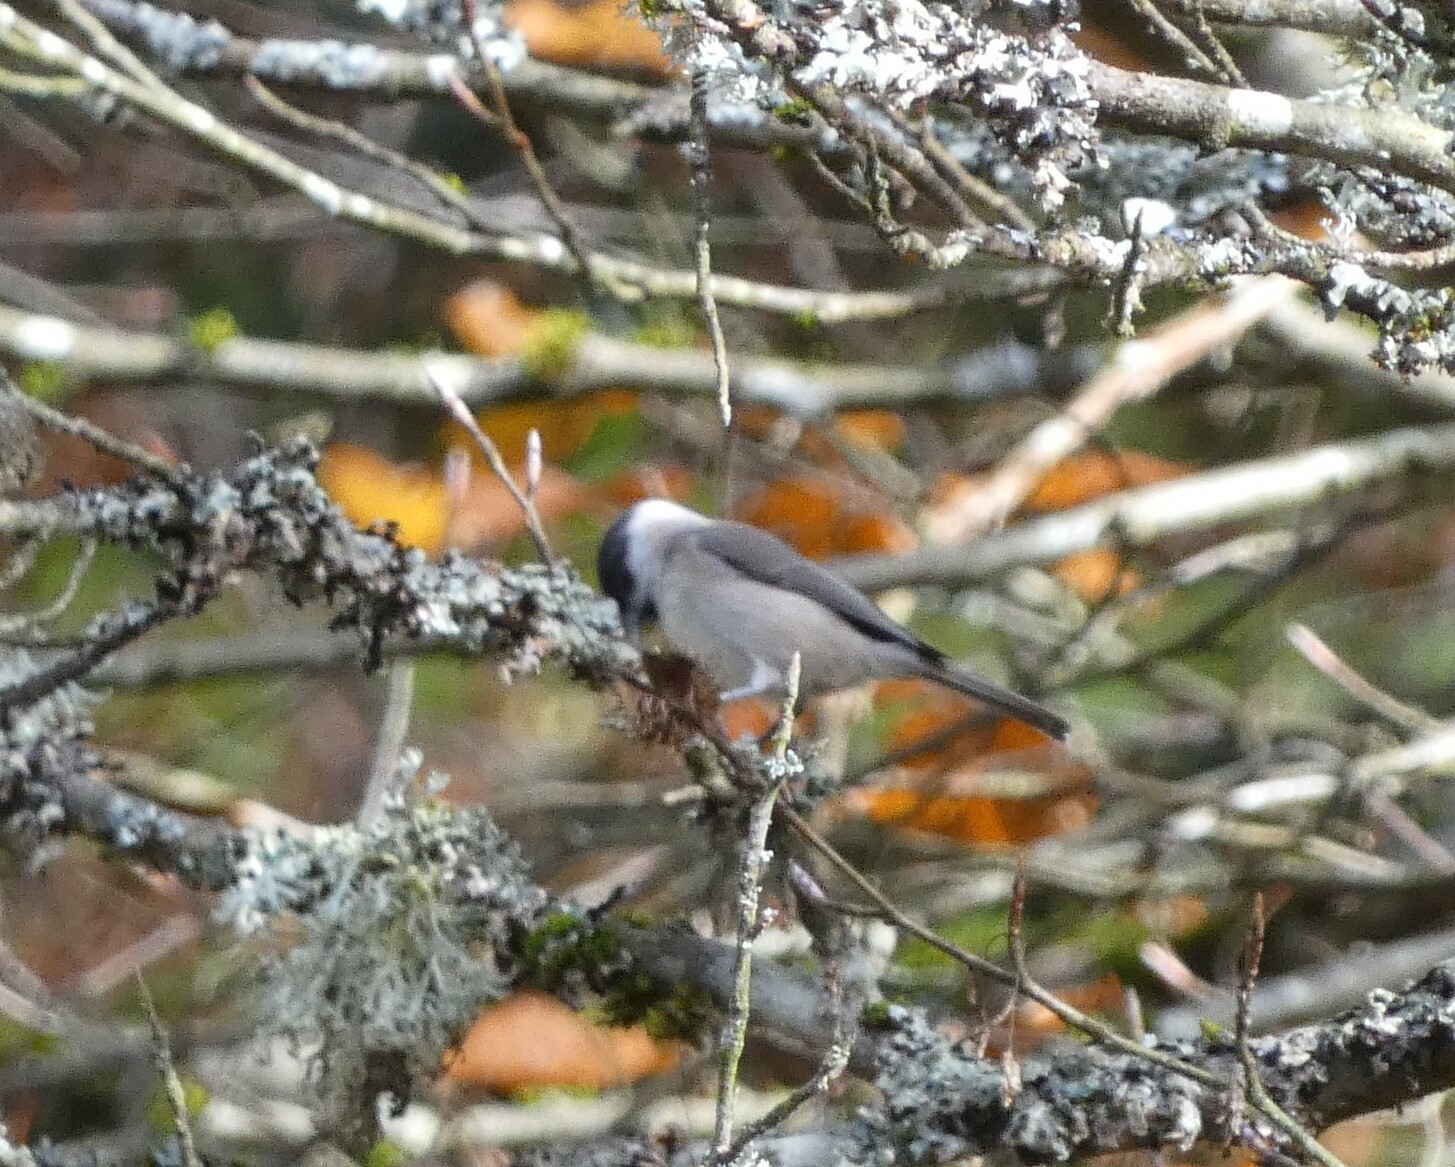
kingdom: Animalia
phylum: Chordata
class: Aves
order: Passeriformes
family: Paridae
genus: Poecile
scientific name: Poecile palustris
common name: Marsh tit
